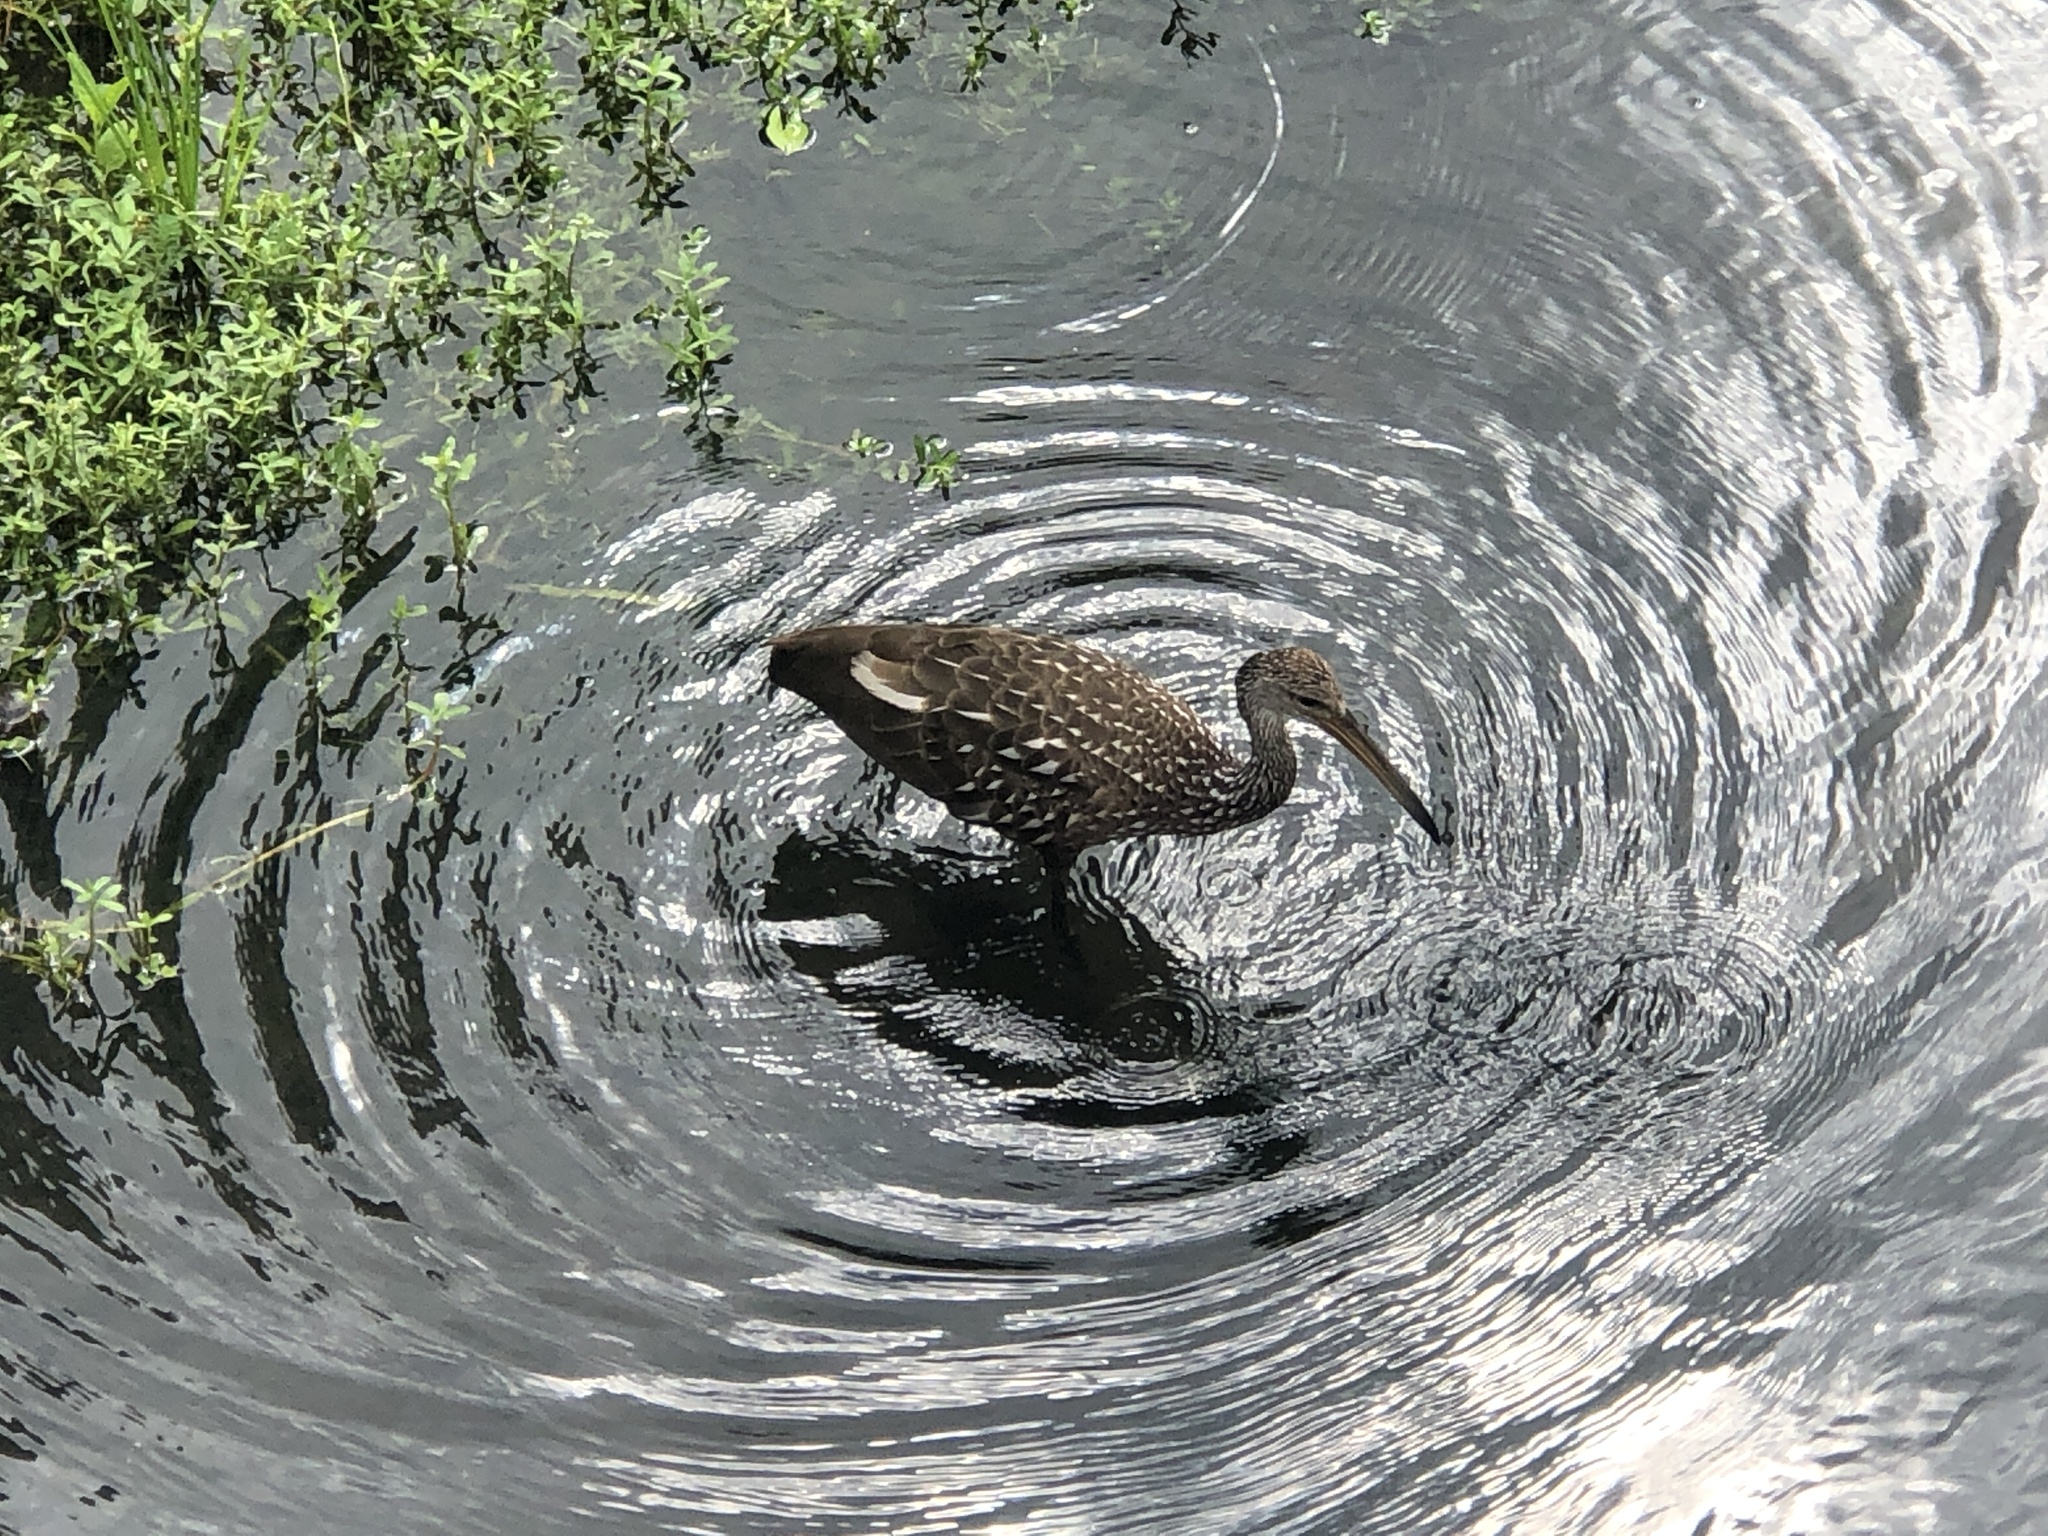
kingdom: Animalia
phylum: Chordata
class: Aves
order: Gruiformes
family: Aramidae
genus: Aramus
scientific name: Aramus guarauna
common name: Limpkin
